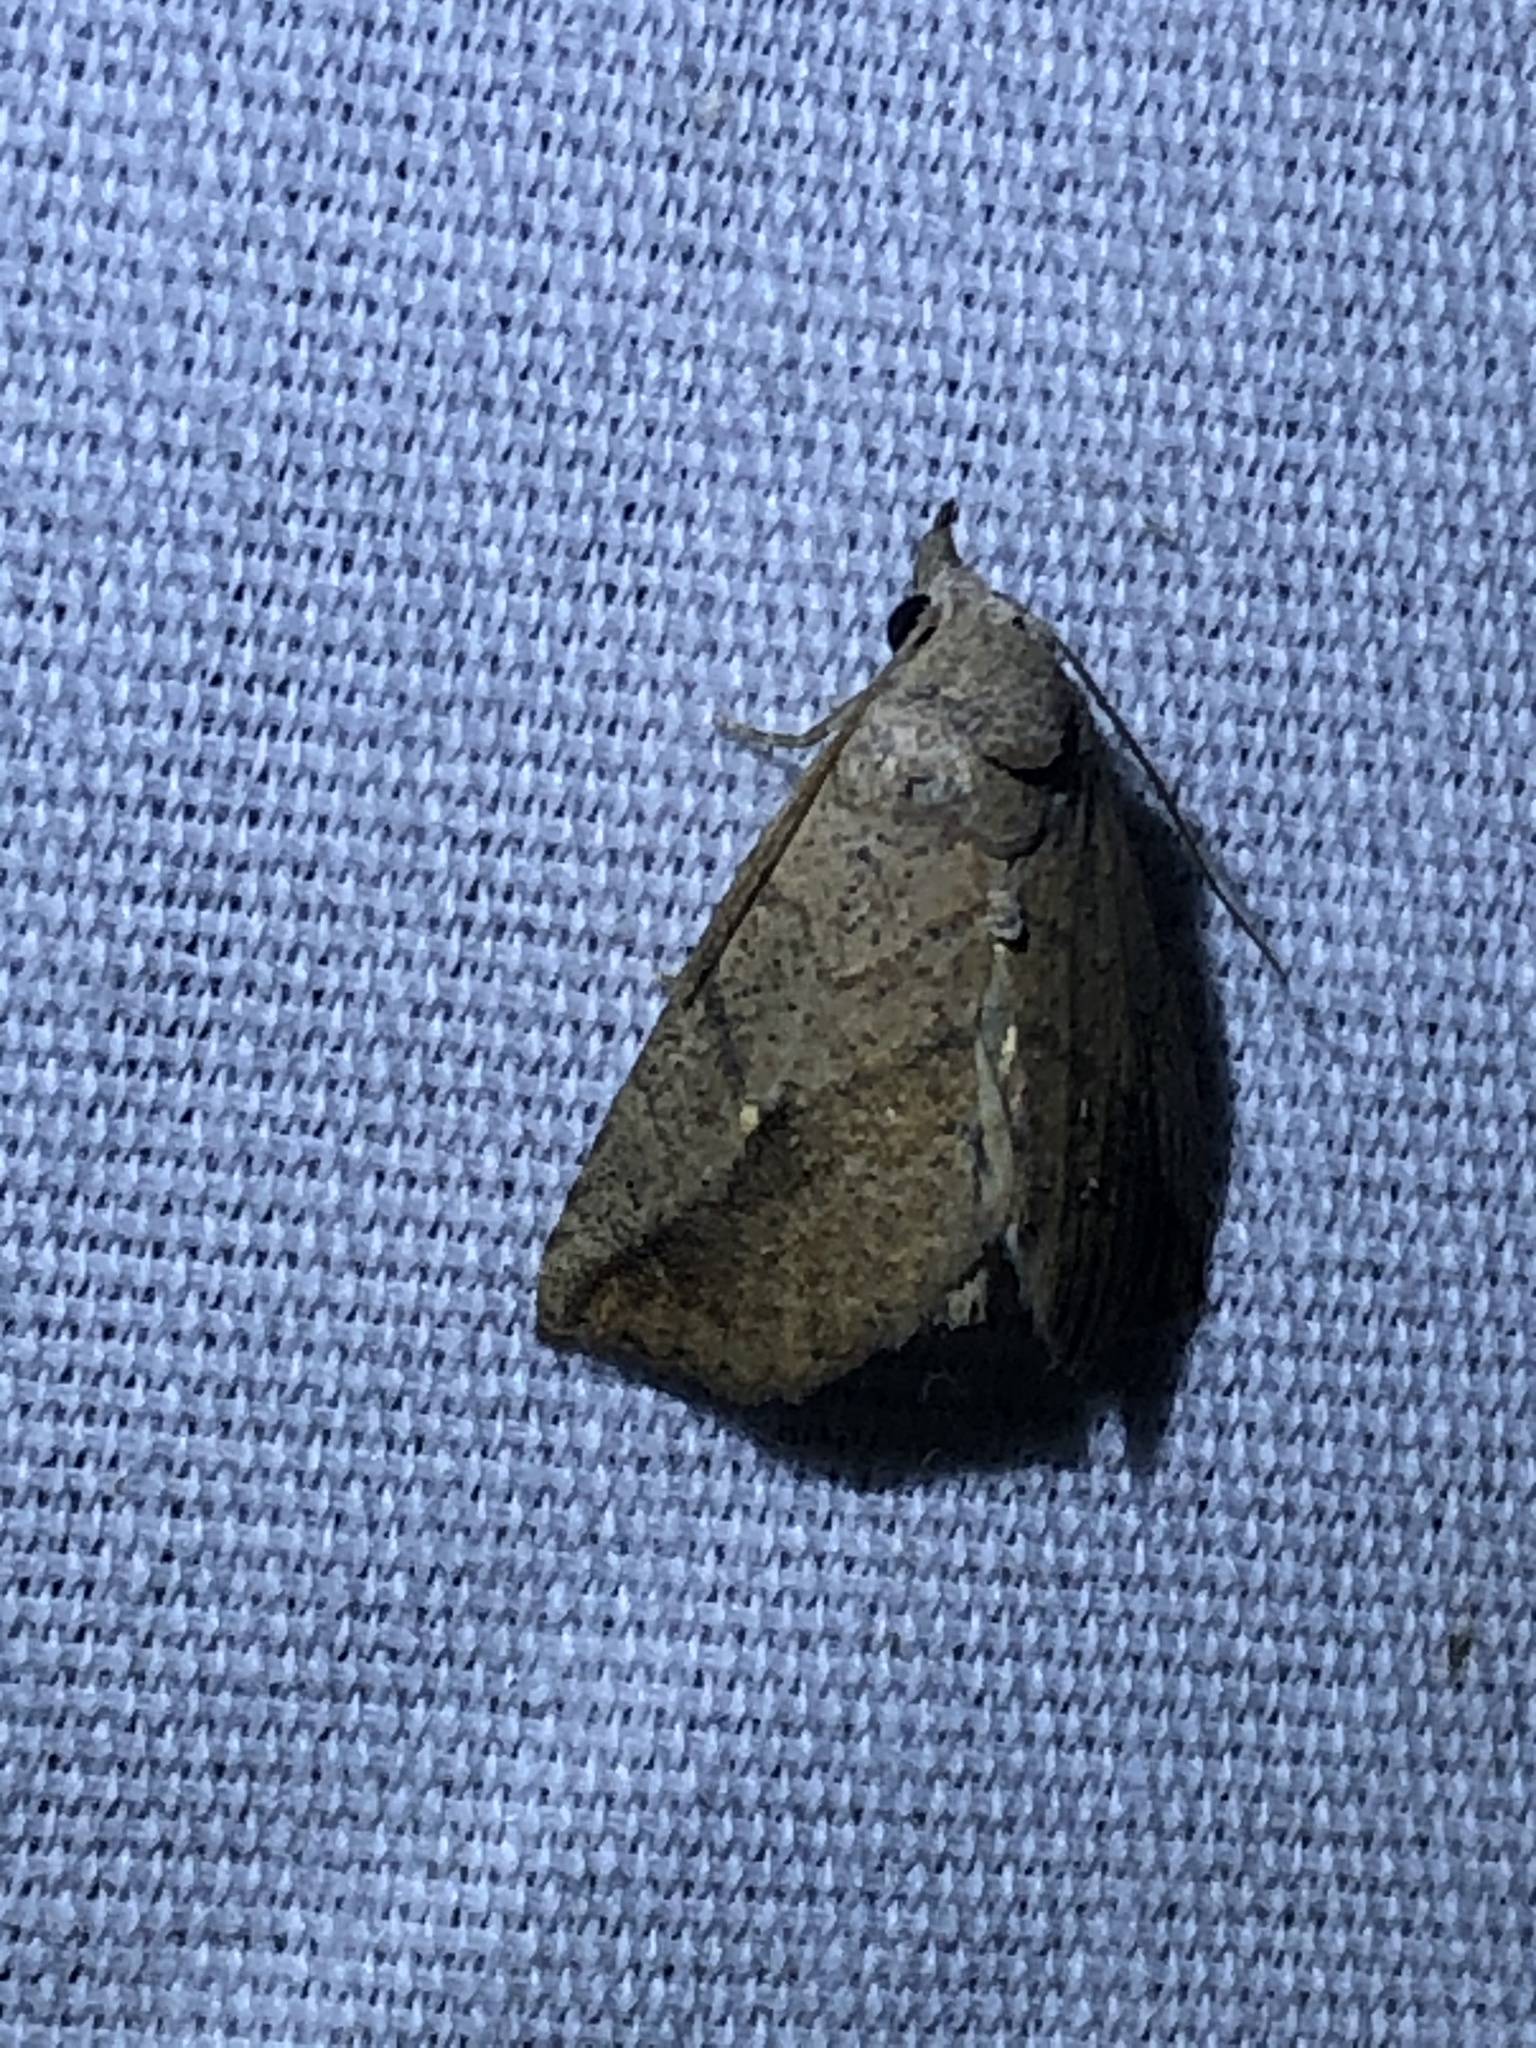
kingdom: Animalia
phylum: Arthropoda
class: Insecta
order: Lepidoptera
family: Erebidae
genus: Isogona
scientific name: Isogona snowi
